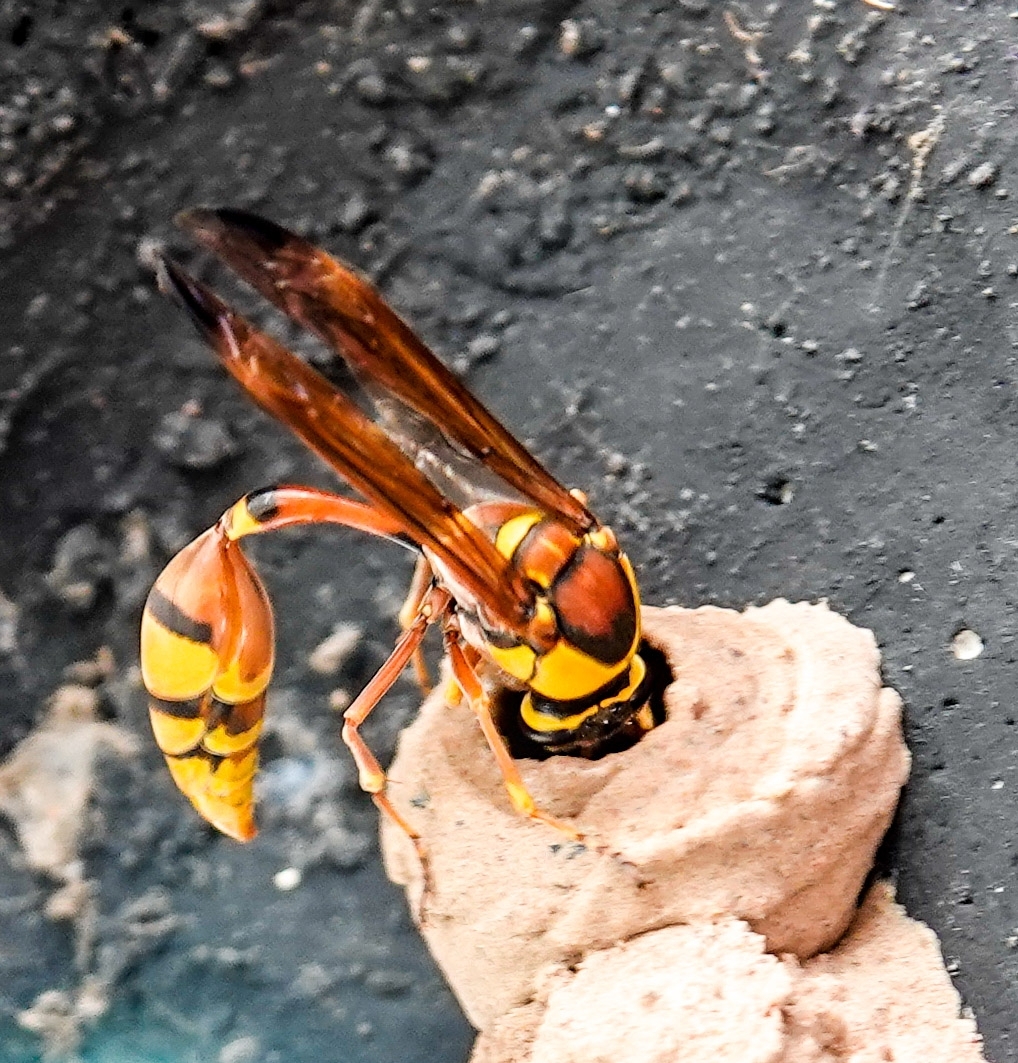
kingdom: Animalia
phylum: Arthropoda
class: Insecta
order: Hymenoptera
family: Eumenidae
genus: Delta
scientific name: Delta esuriens
